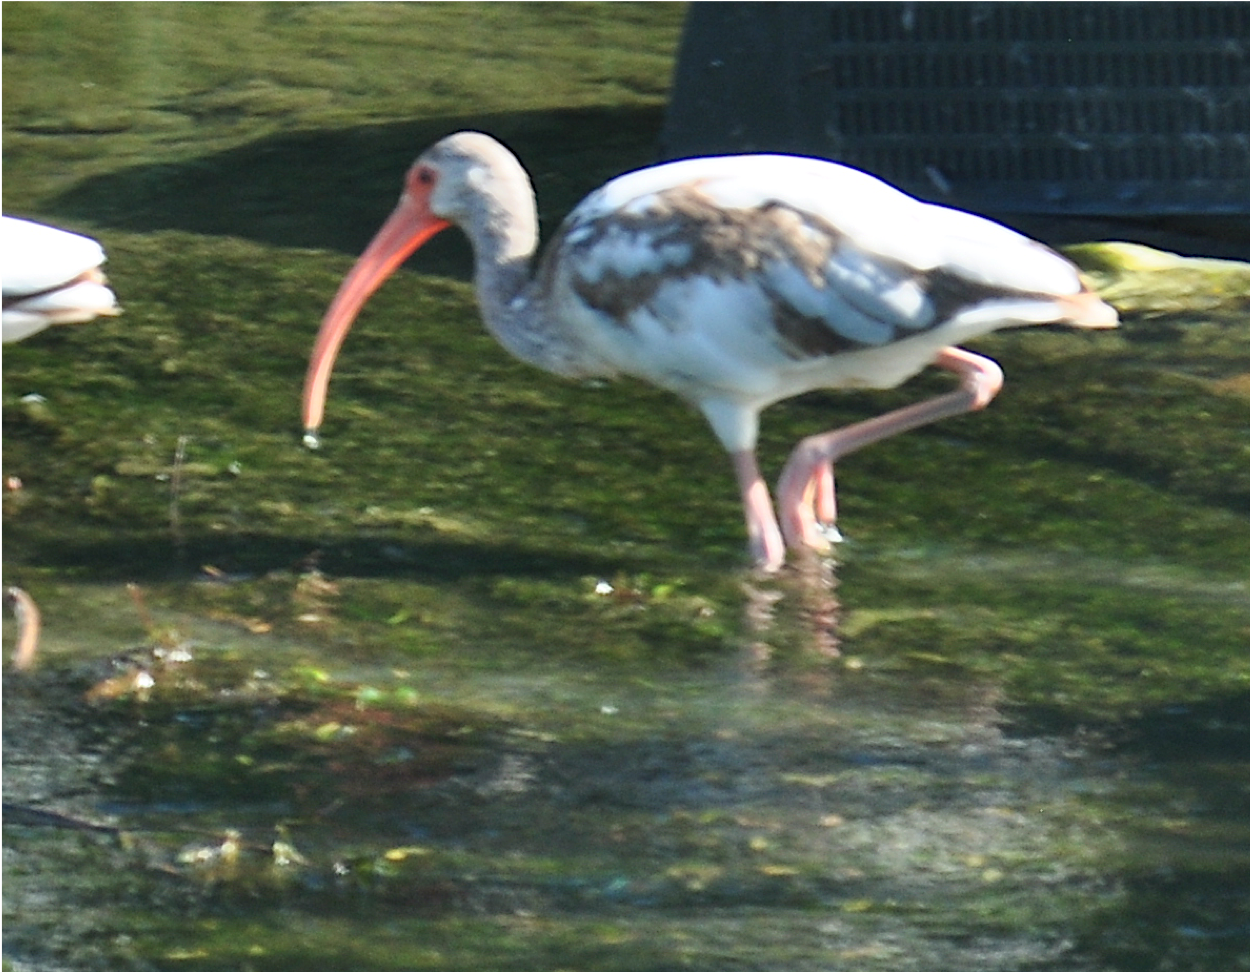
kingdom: Animalia
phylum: Chordata
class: Aves
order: Pelecaniformes
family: Threskiornithidae
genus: Eudocimus
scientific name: Eudocimus albus
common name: White ibis
